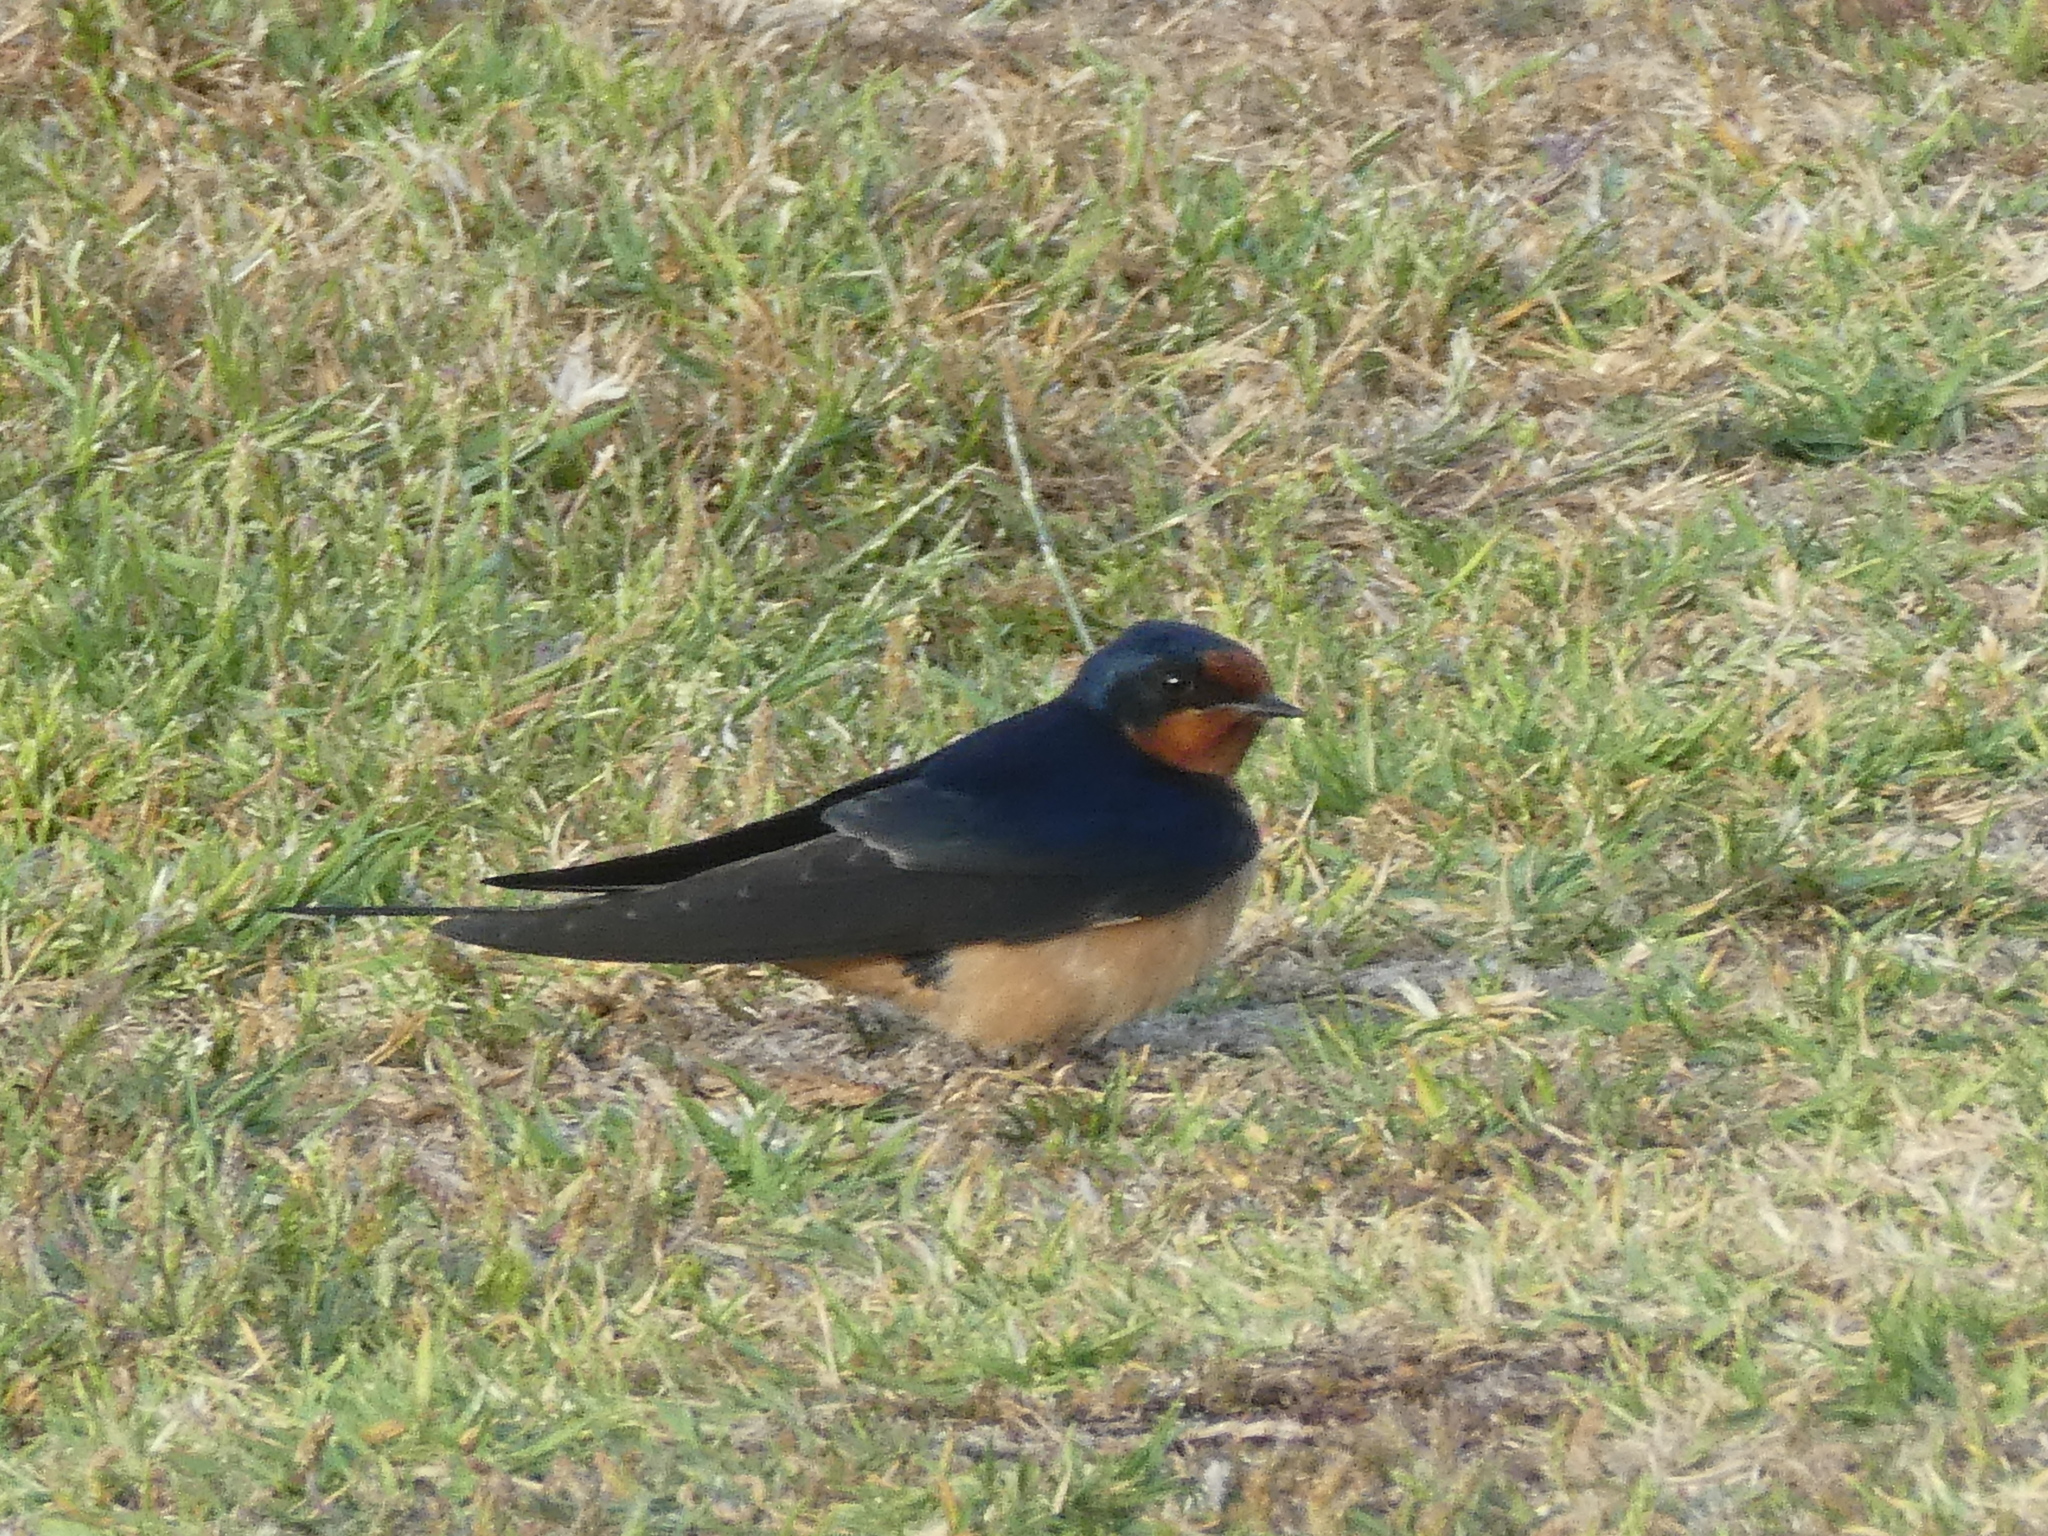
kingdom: Animalia
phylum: Chordata
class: Aves
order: Passeriformes
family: Hirundinidae
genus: Hirundo
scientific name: Hirundo rustica
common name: Barn swallow
